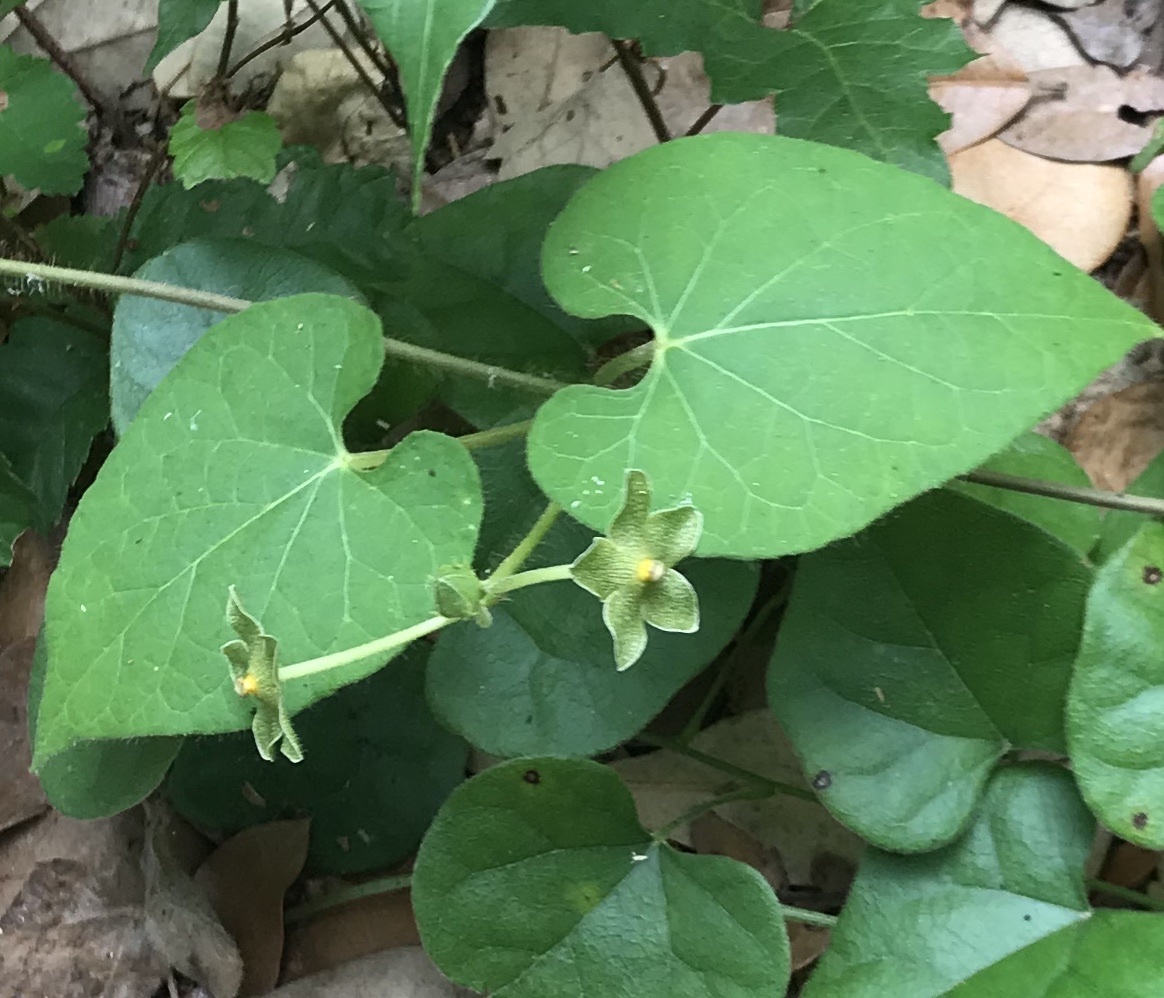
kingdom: Plantae
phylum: Tracheophyta
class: Magnoliopsida
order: Gentianales
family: Apocynaceae
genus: Dictyanthus
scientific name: Dictyanthus reticulatus
